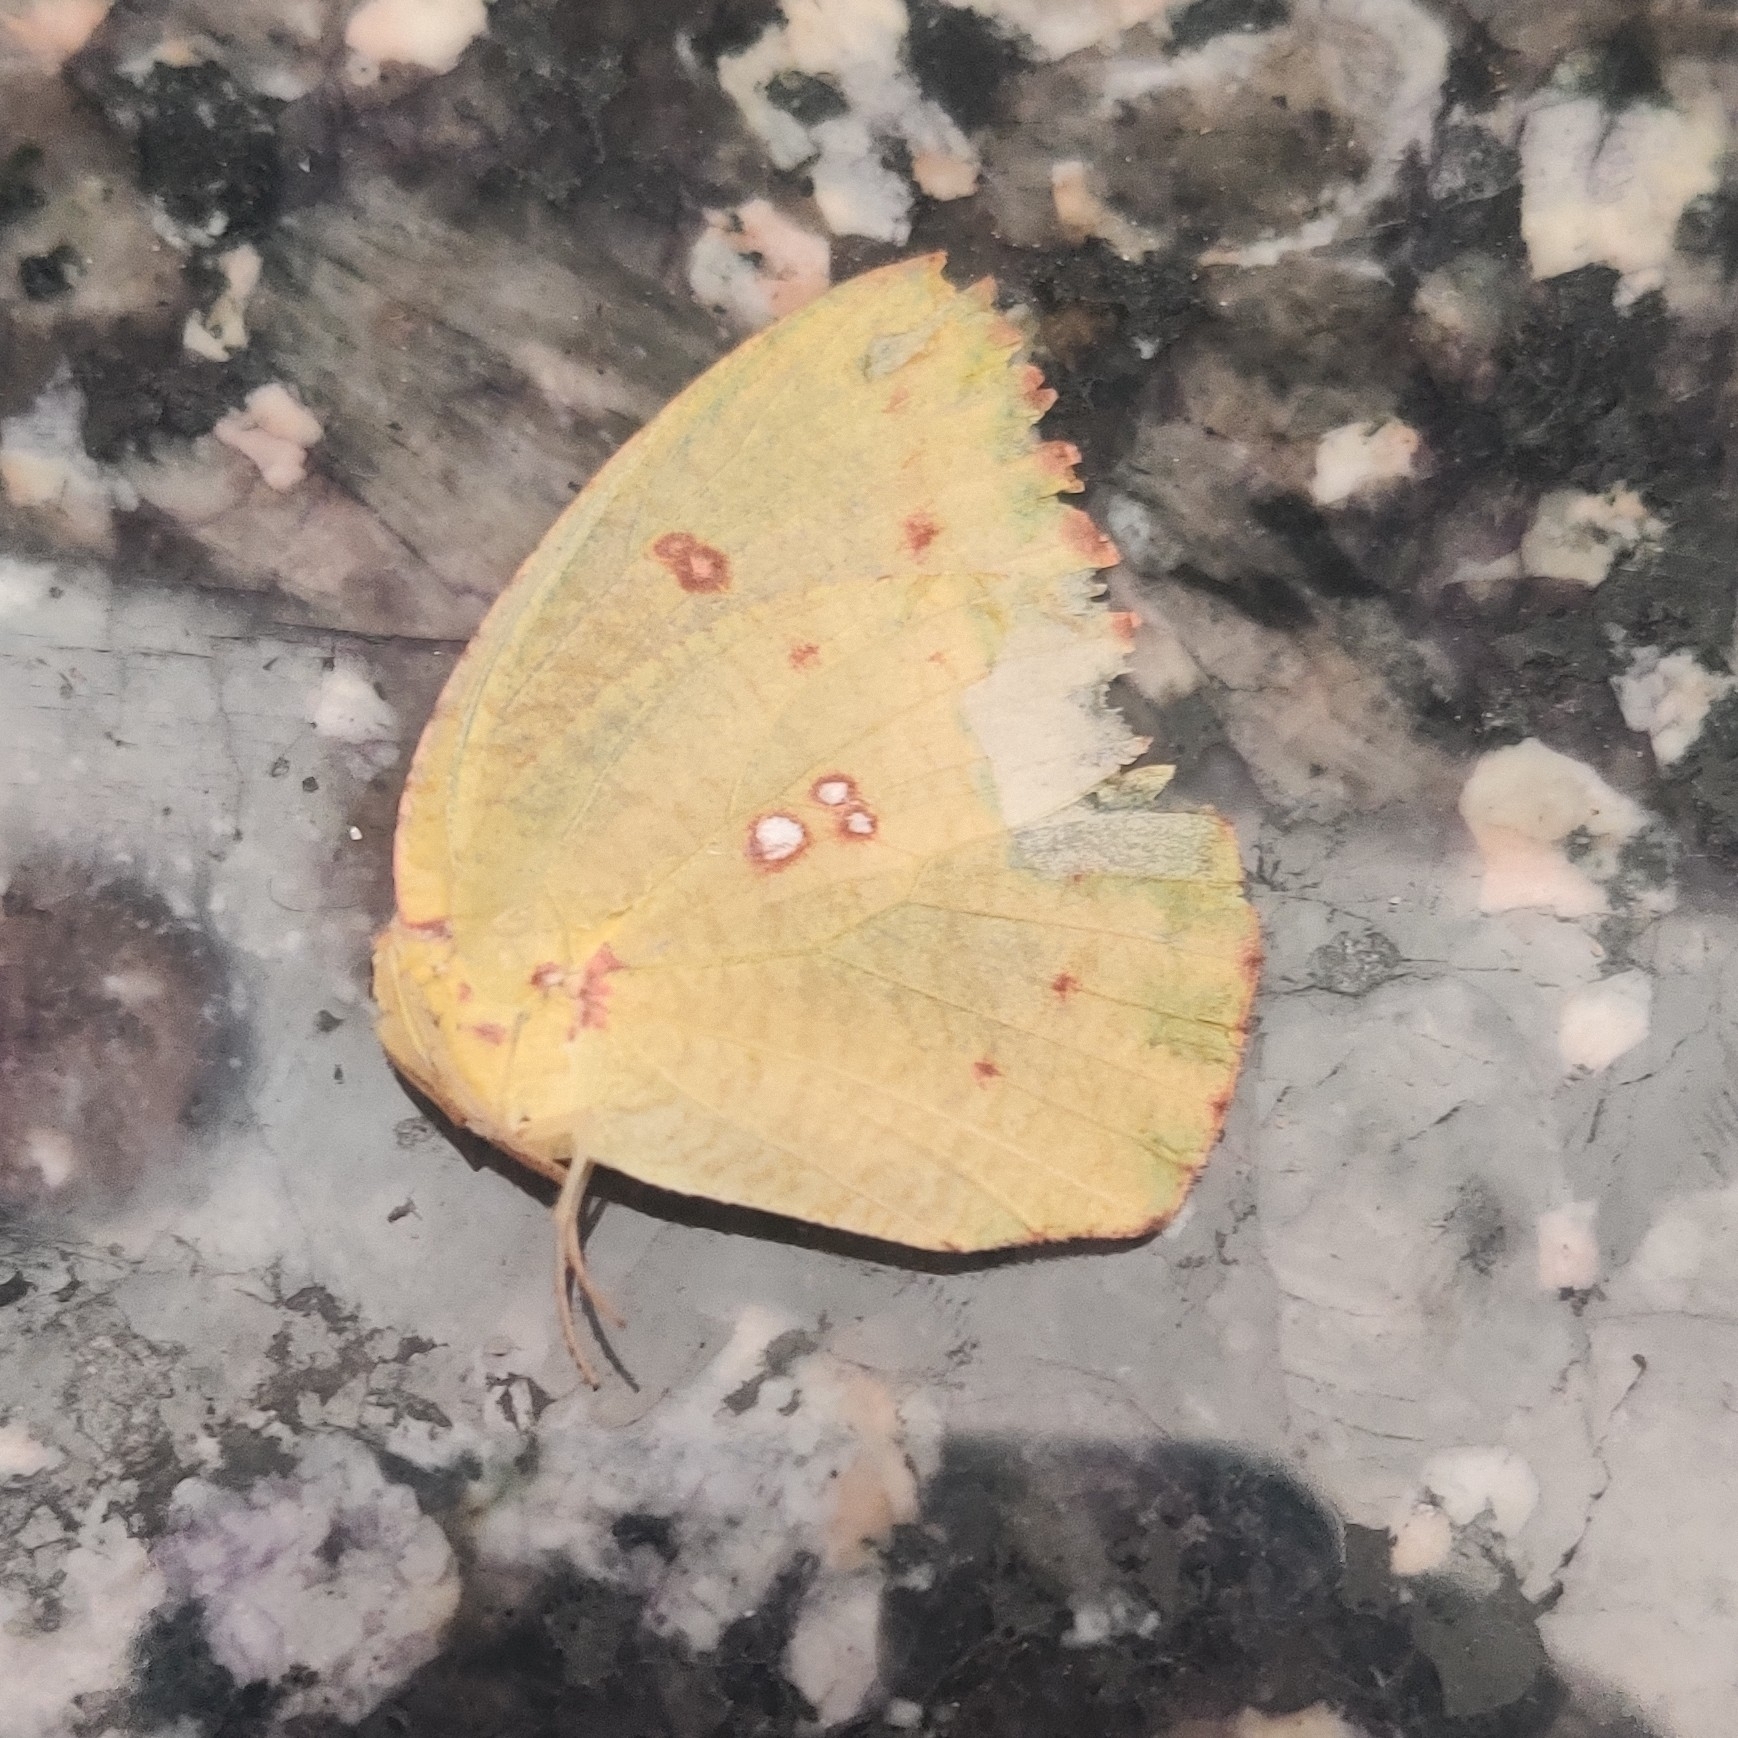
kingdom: Animalia
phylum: Arthropoda
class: Insecta
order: Lepidoptera
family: Pieridae
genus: Catopsilia
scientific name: Catopsilia pyranthe
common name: Mottled emigrant
